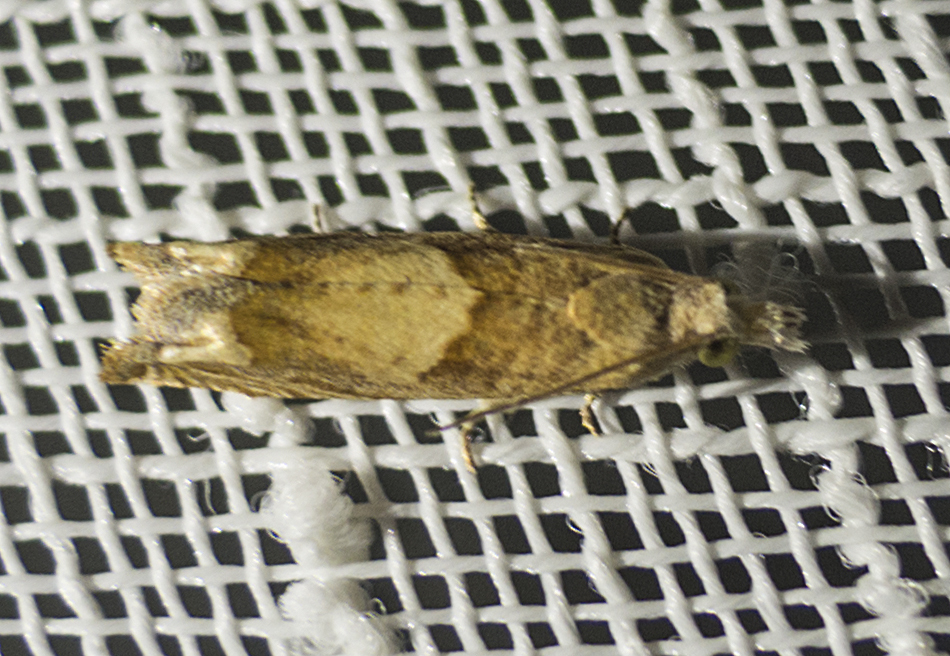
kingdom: Animalia
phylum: Arthropoda
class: Insecta
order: Lepidoptera
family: Tortricidae
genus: Eucosma
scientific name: Eucosma conterminana
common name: Pale lettuce bell
